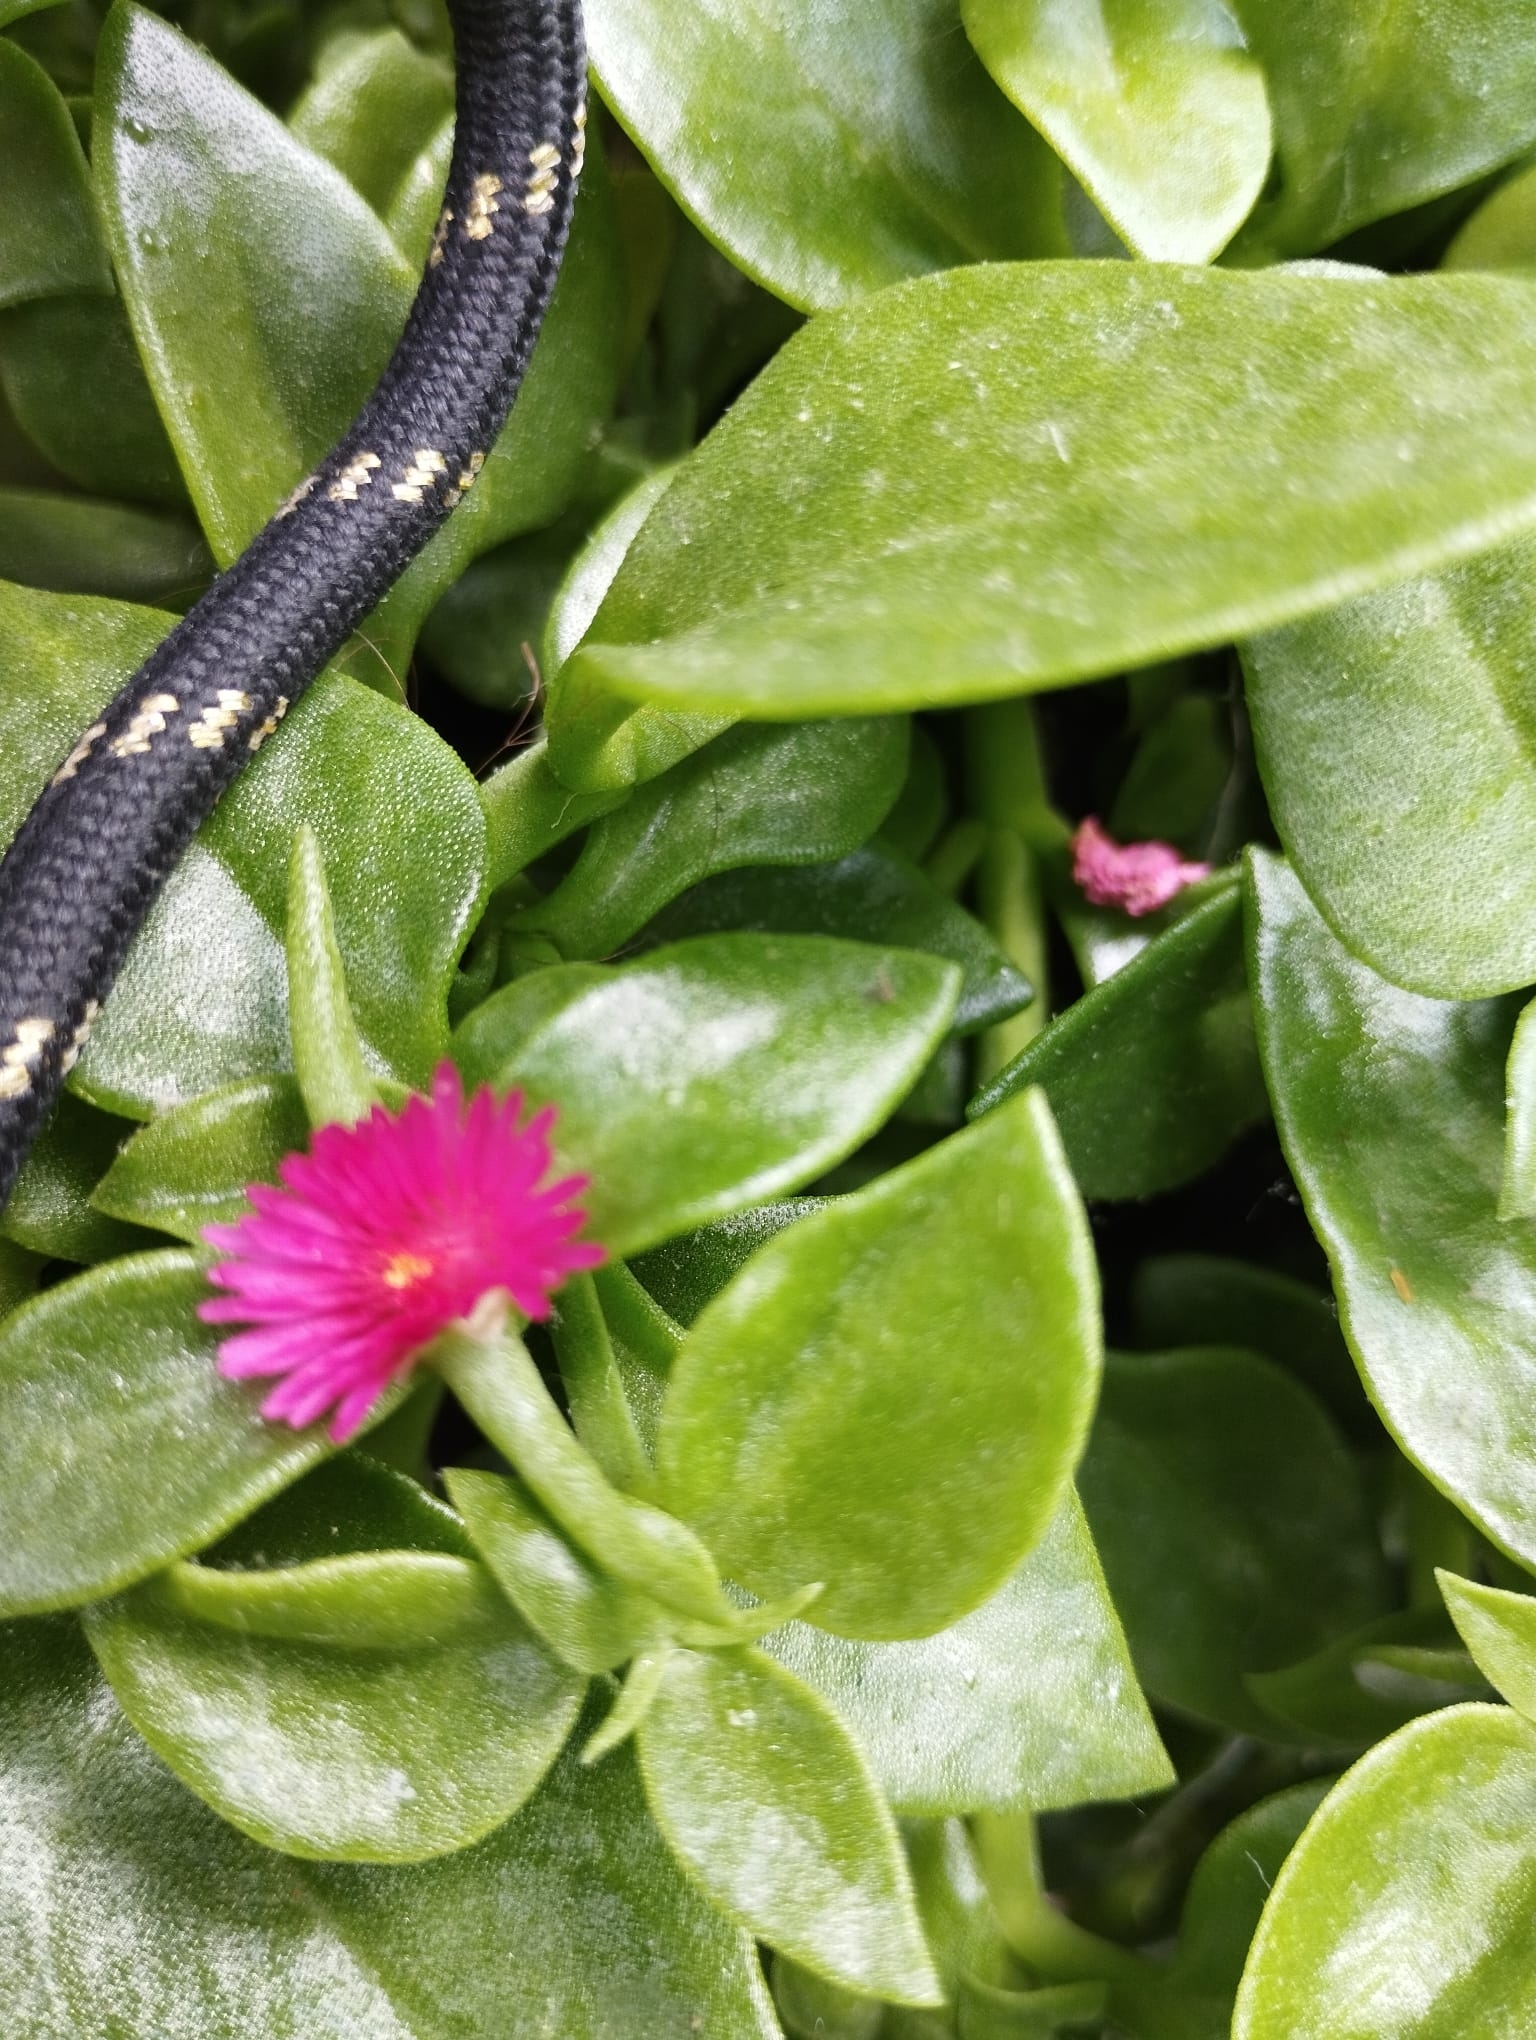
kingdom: Plantae
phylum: Tracheophyta
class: Magnoliopsida
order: Caryophyllales
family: Aizoaceae
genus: Mesembryanthemum
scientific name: Mesembryanthemum cordifolium
